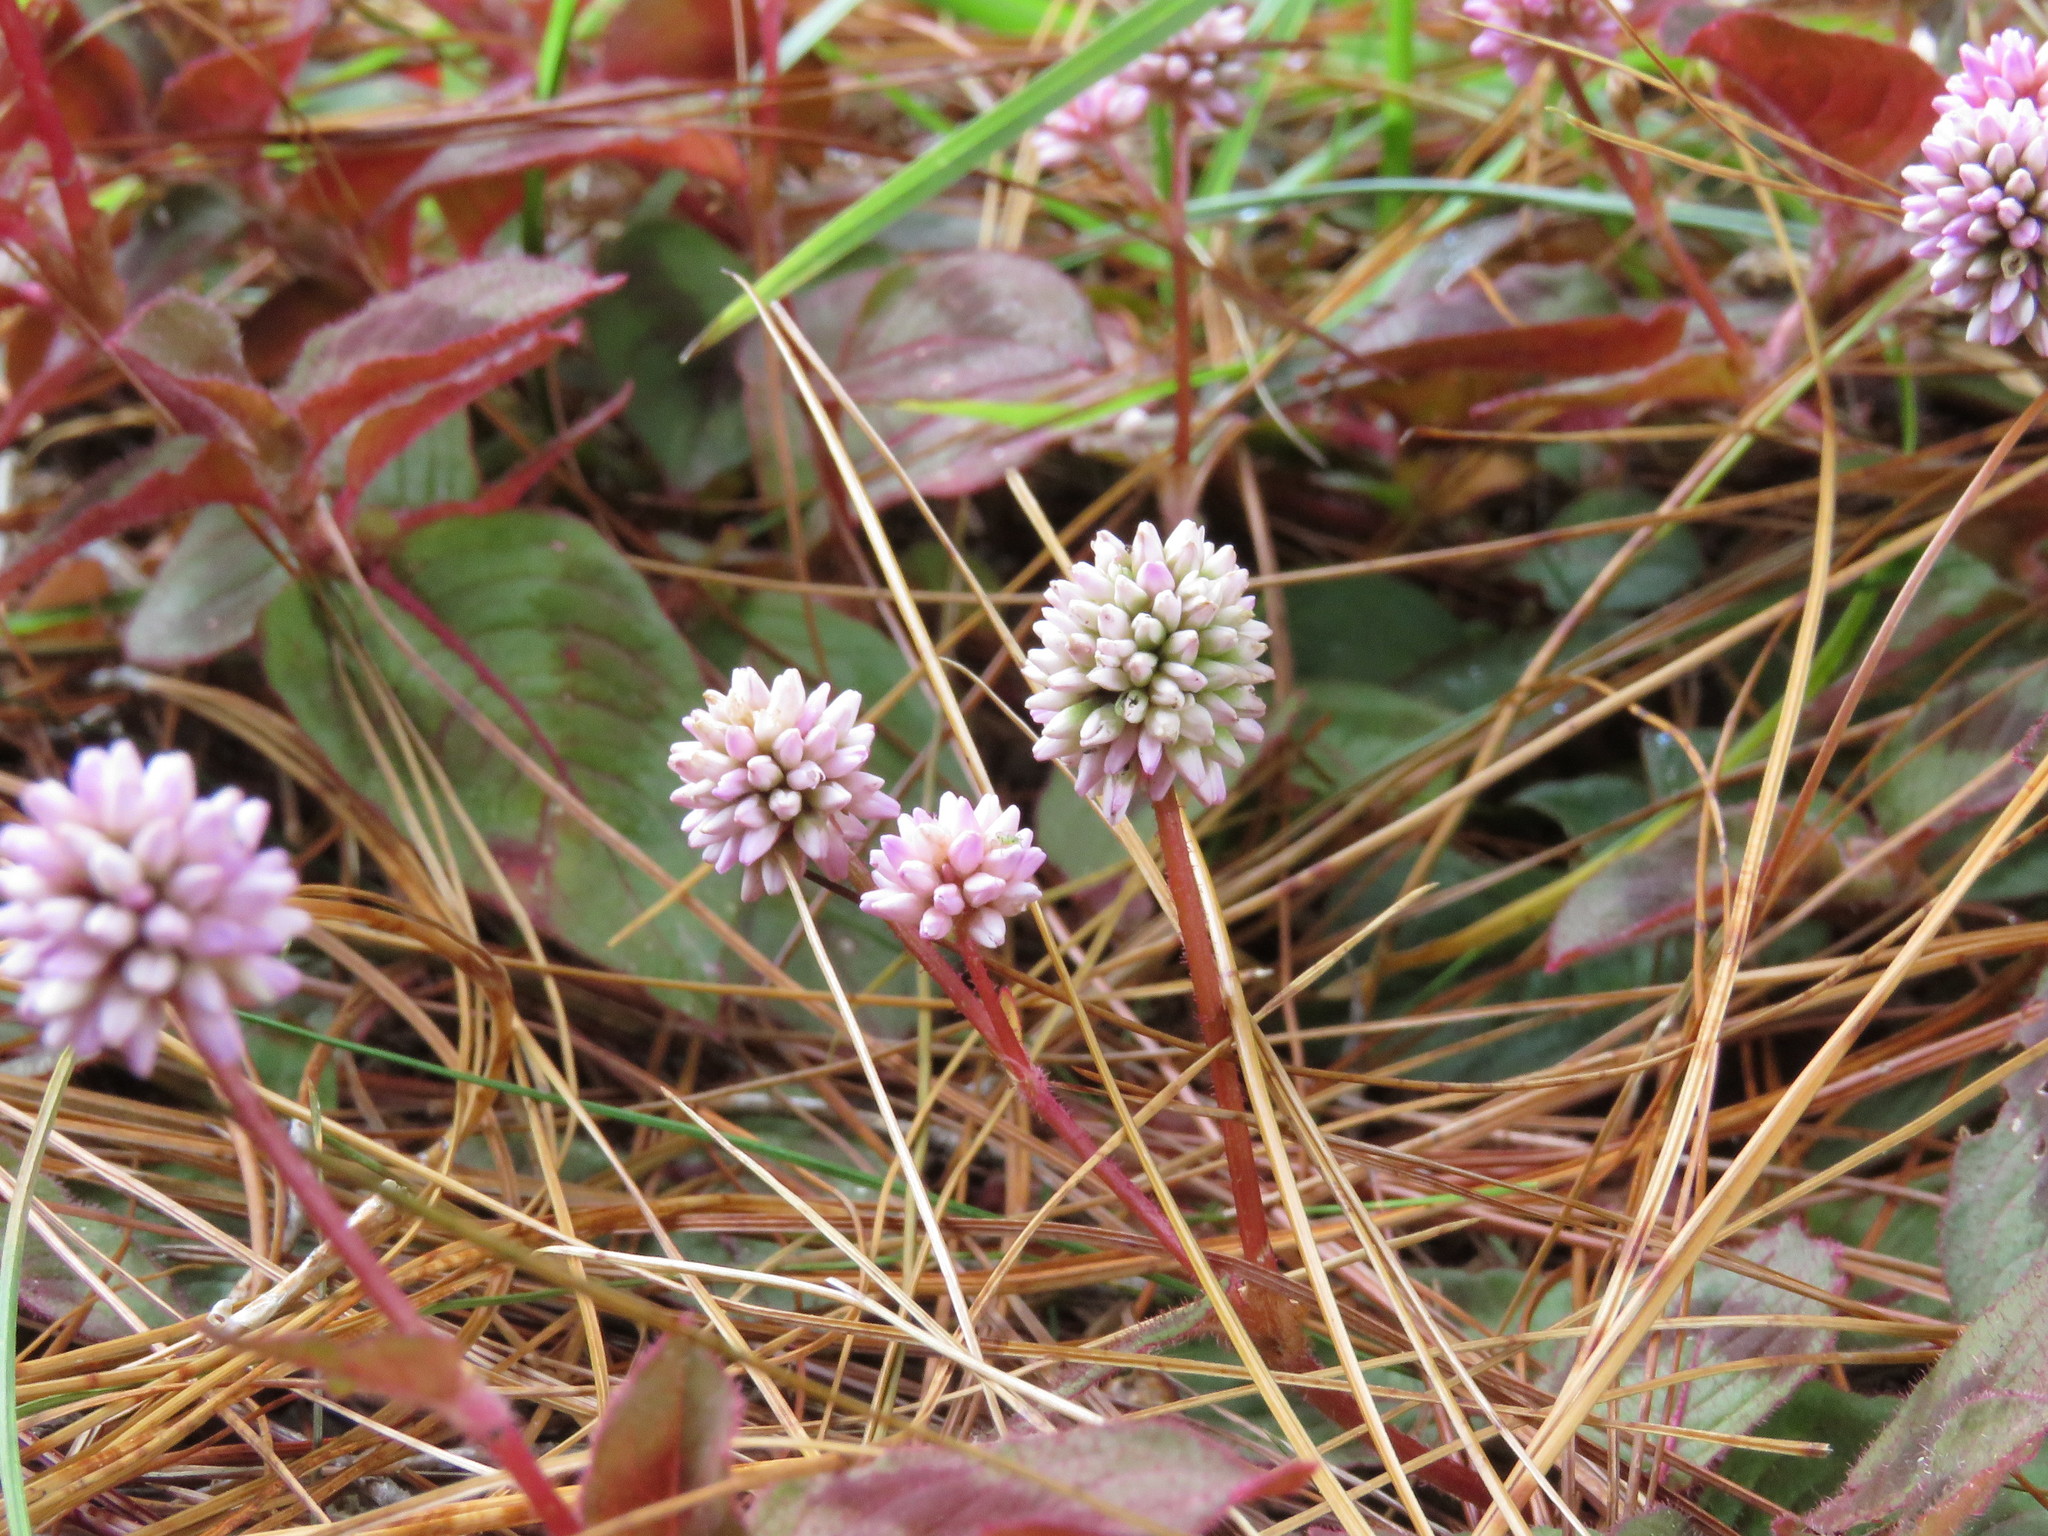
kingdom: Plantae
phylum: Tracheophyta
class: Magnoliopsida
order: Caryophyllales
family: Polygonaceae
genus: Persicaria
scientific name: Persicaria capitata
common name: Pinkhead smartweed
